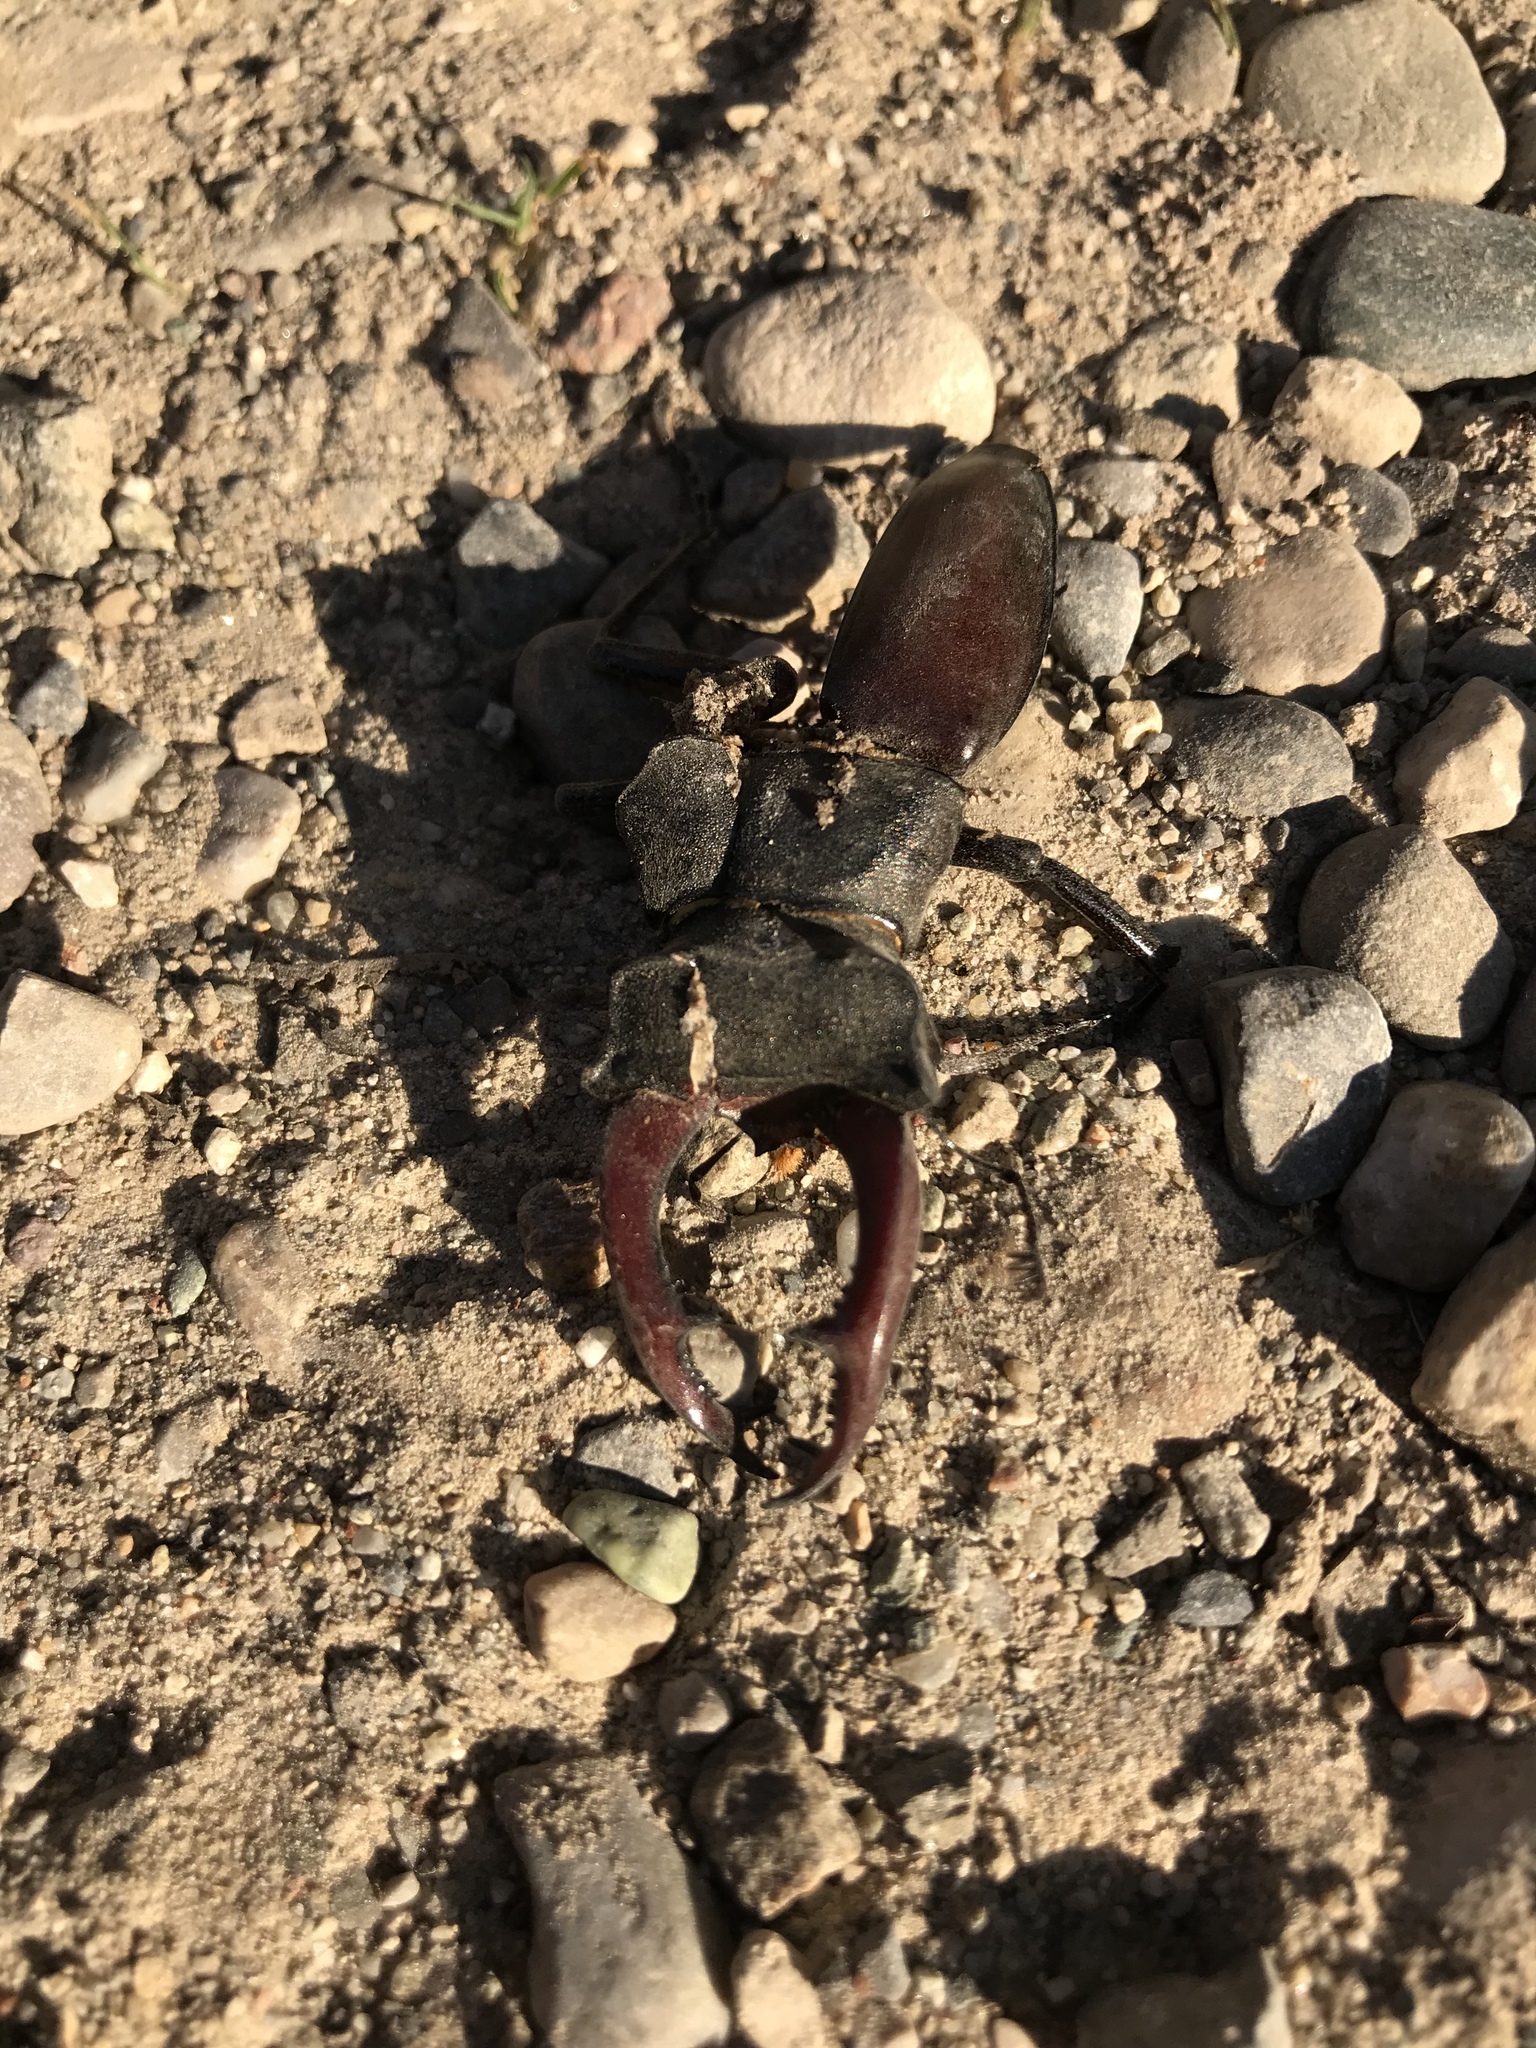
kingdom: Animalia
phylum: Arthropoda
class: Insecta
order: Coleoptera
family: Lucanidae
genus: Lucanus
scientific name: Lucanus cervus
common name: Stag beetle
